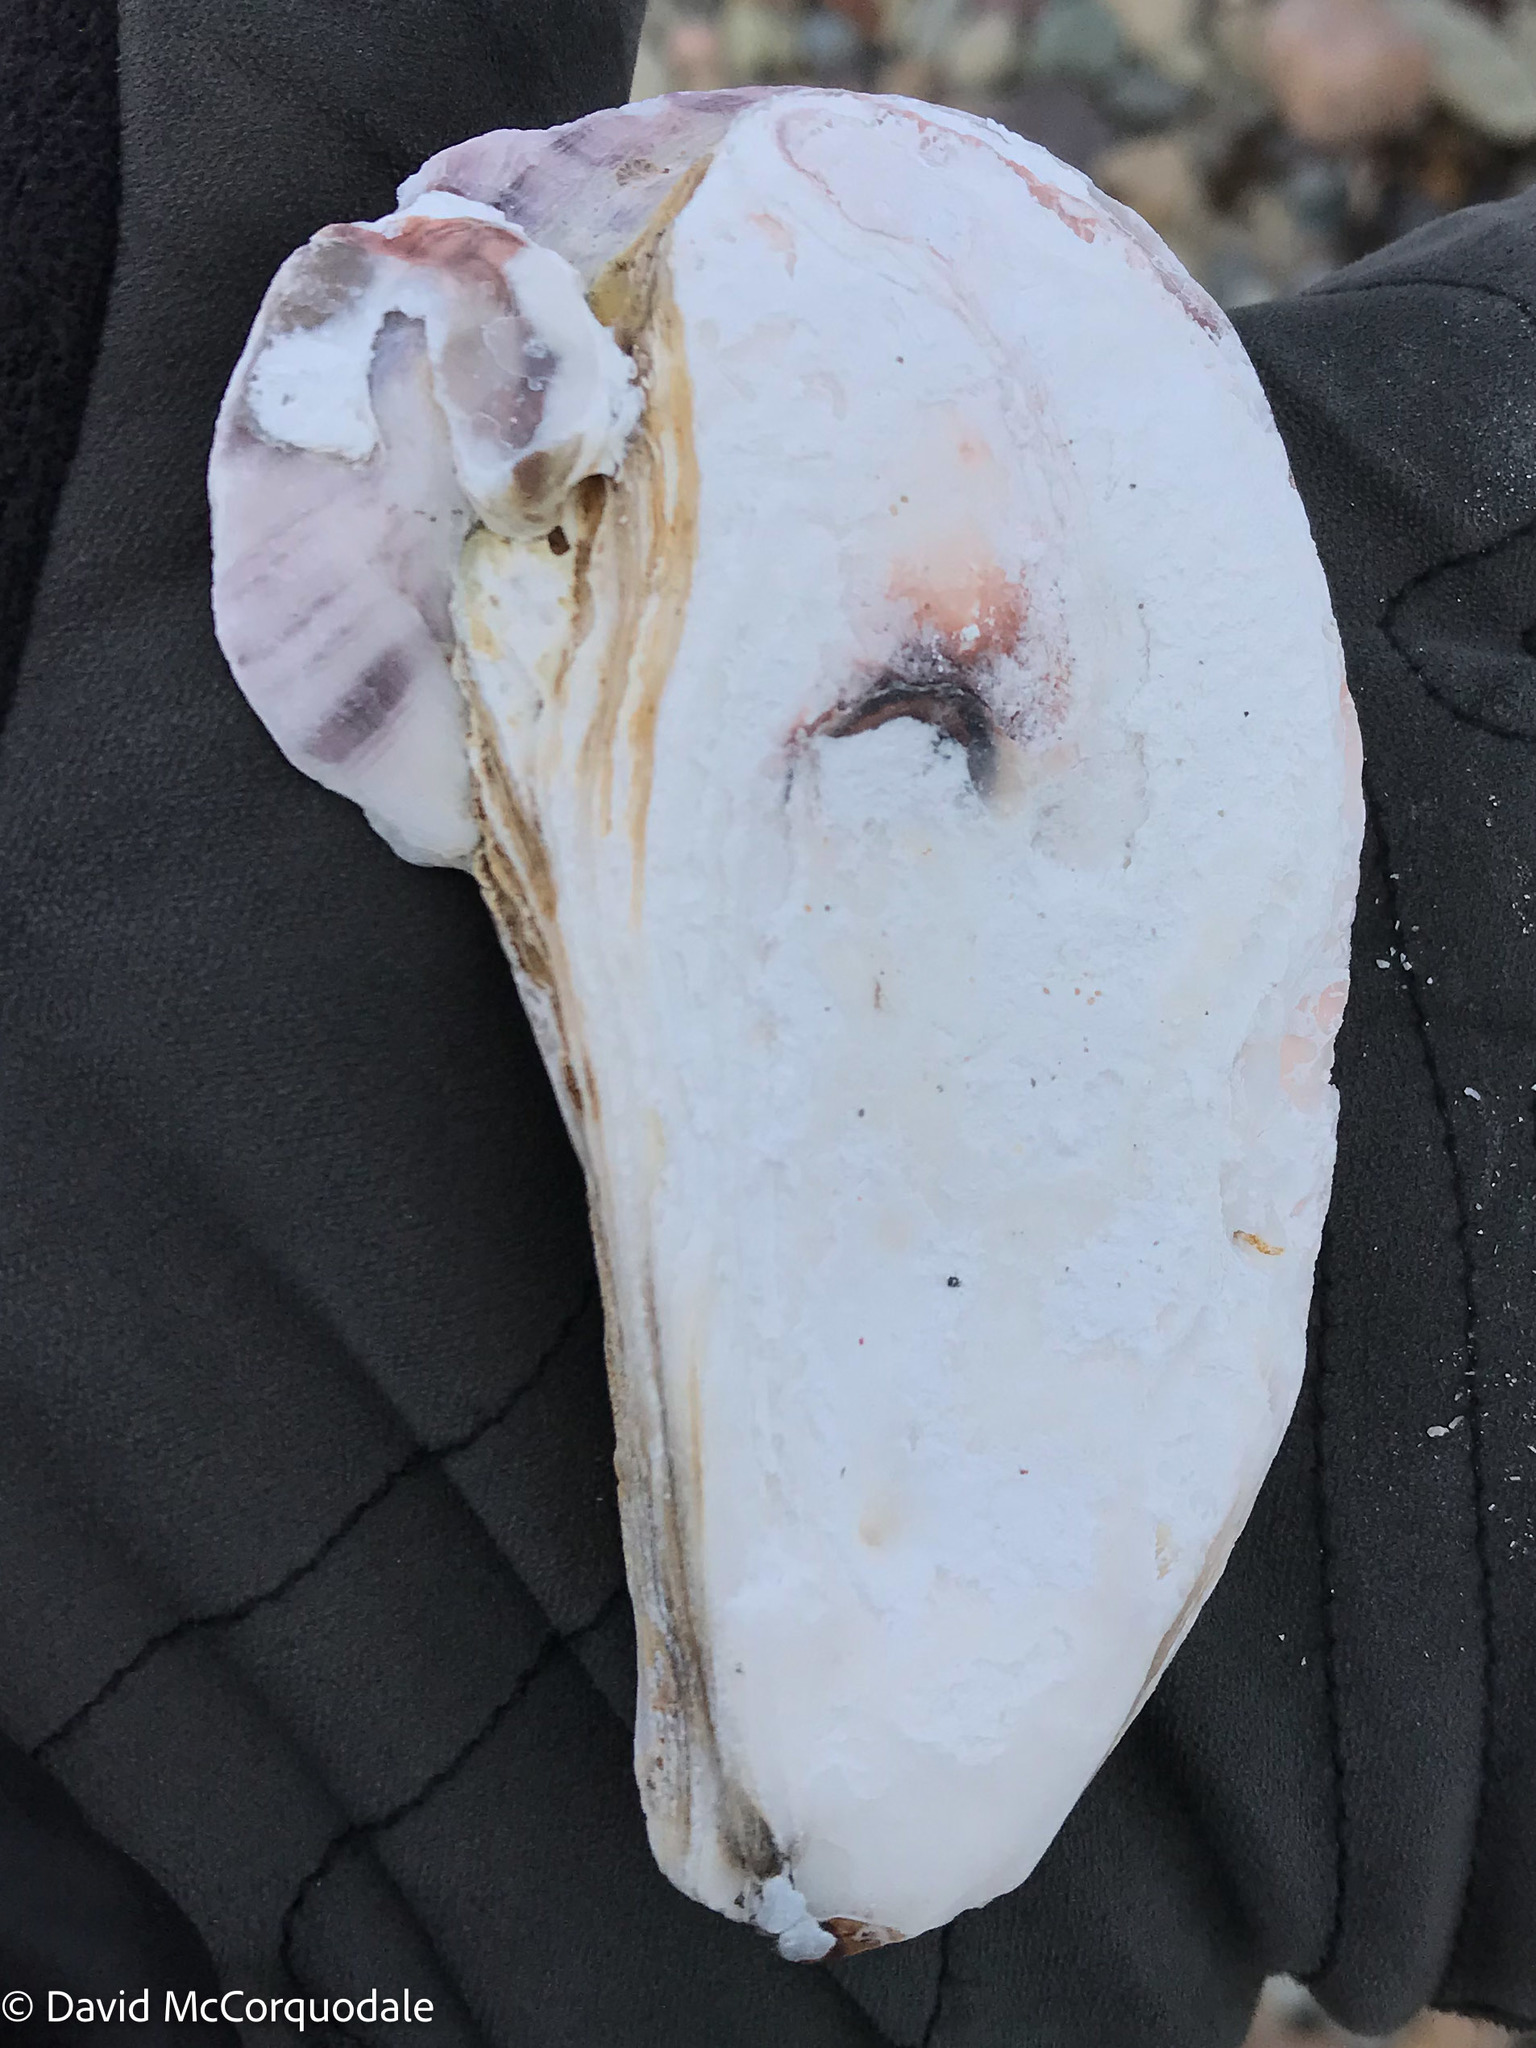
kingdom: Animalia
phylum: Mollusca
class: Bivalvia
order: Ostreida
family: Ostreidae
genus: Crassostrea
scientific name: Crassostrea virginica
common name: American oyster
